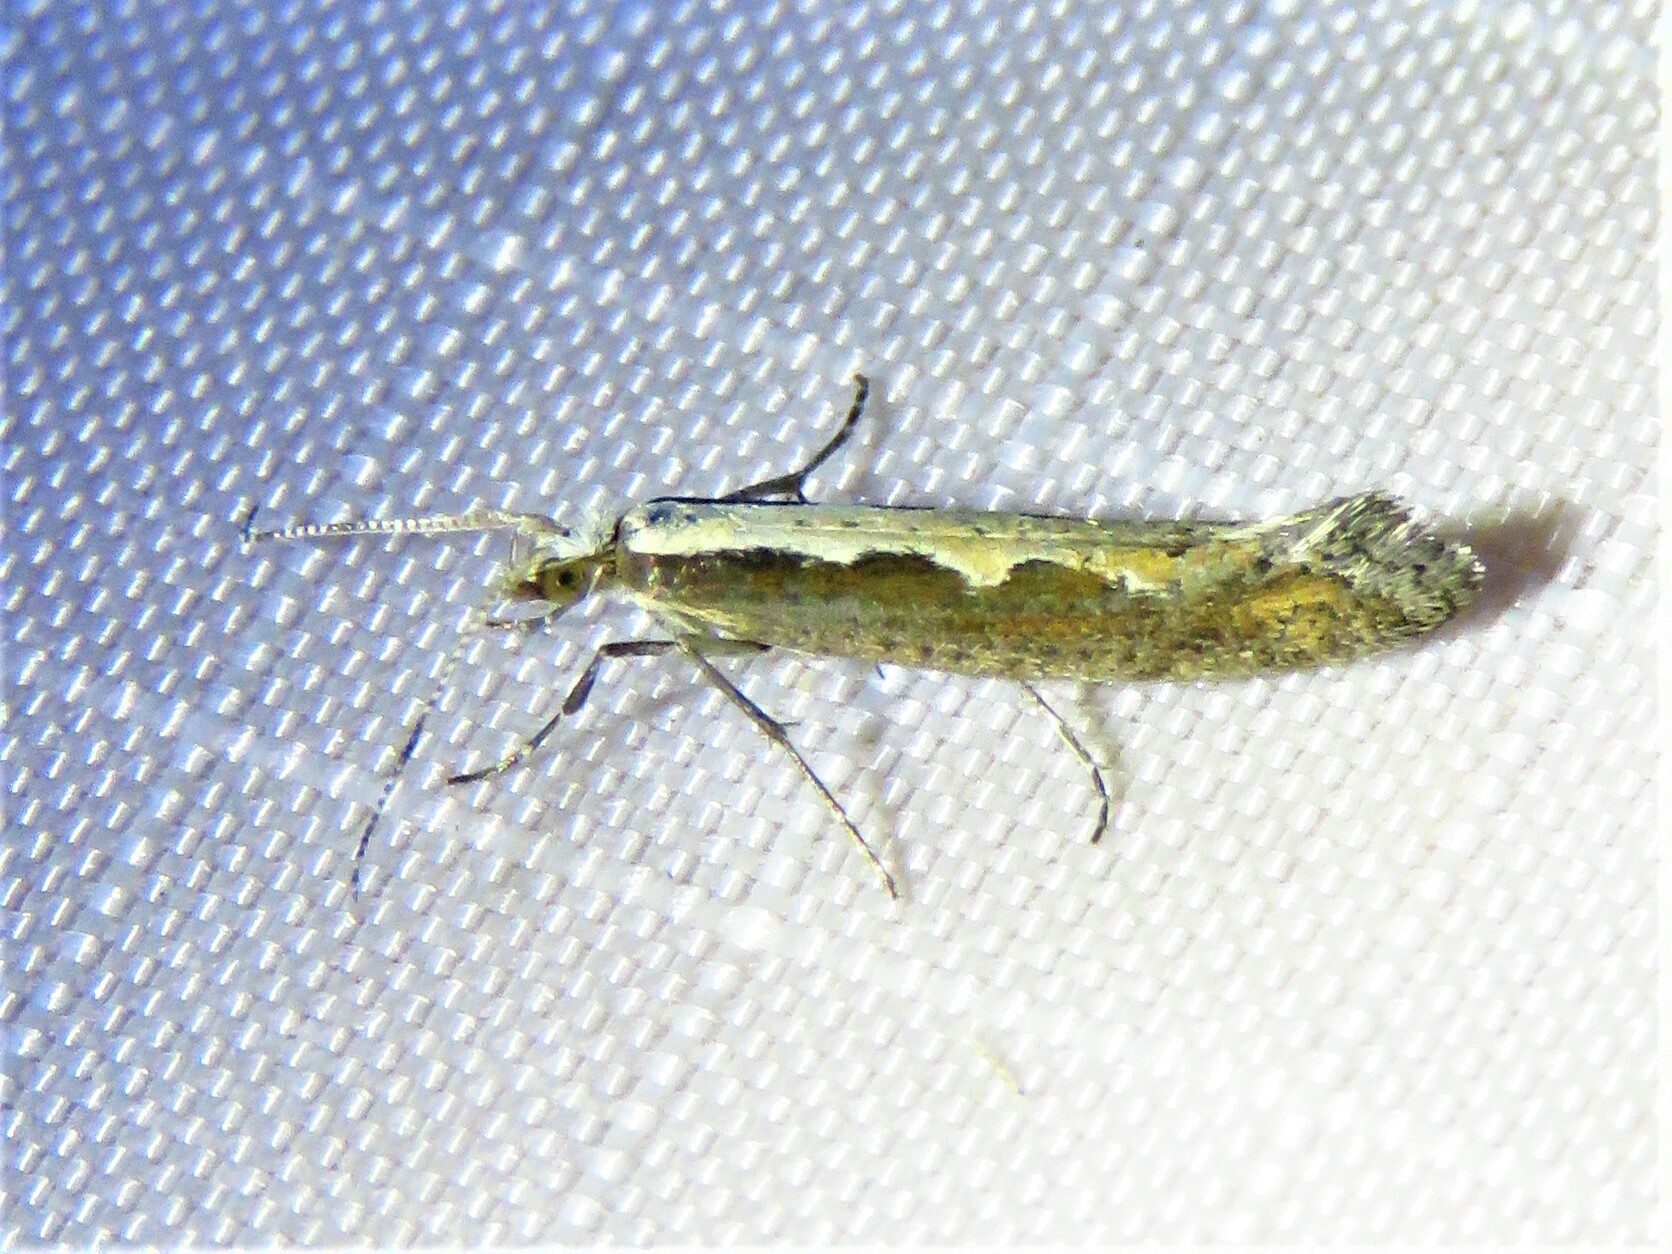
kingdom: Animalia
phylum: Arthropoda
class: Insecta
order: Lepidoptera
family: Plutellidae
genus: Plutella
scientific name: Plutella xylostella
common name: Diamond-back moth
